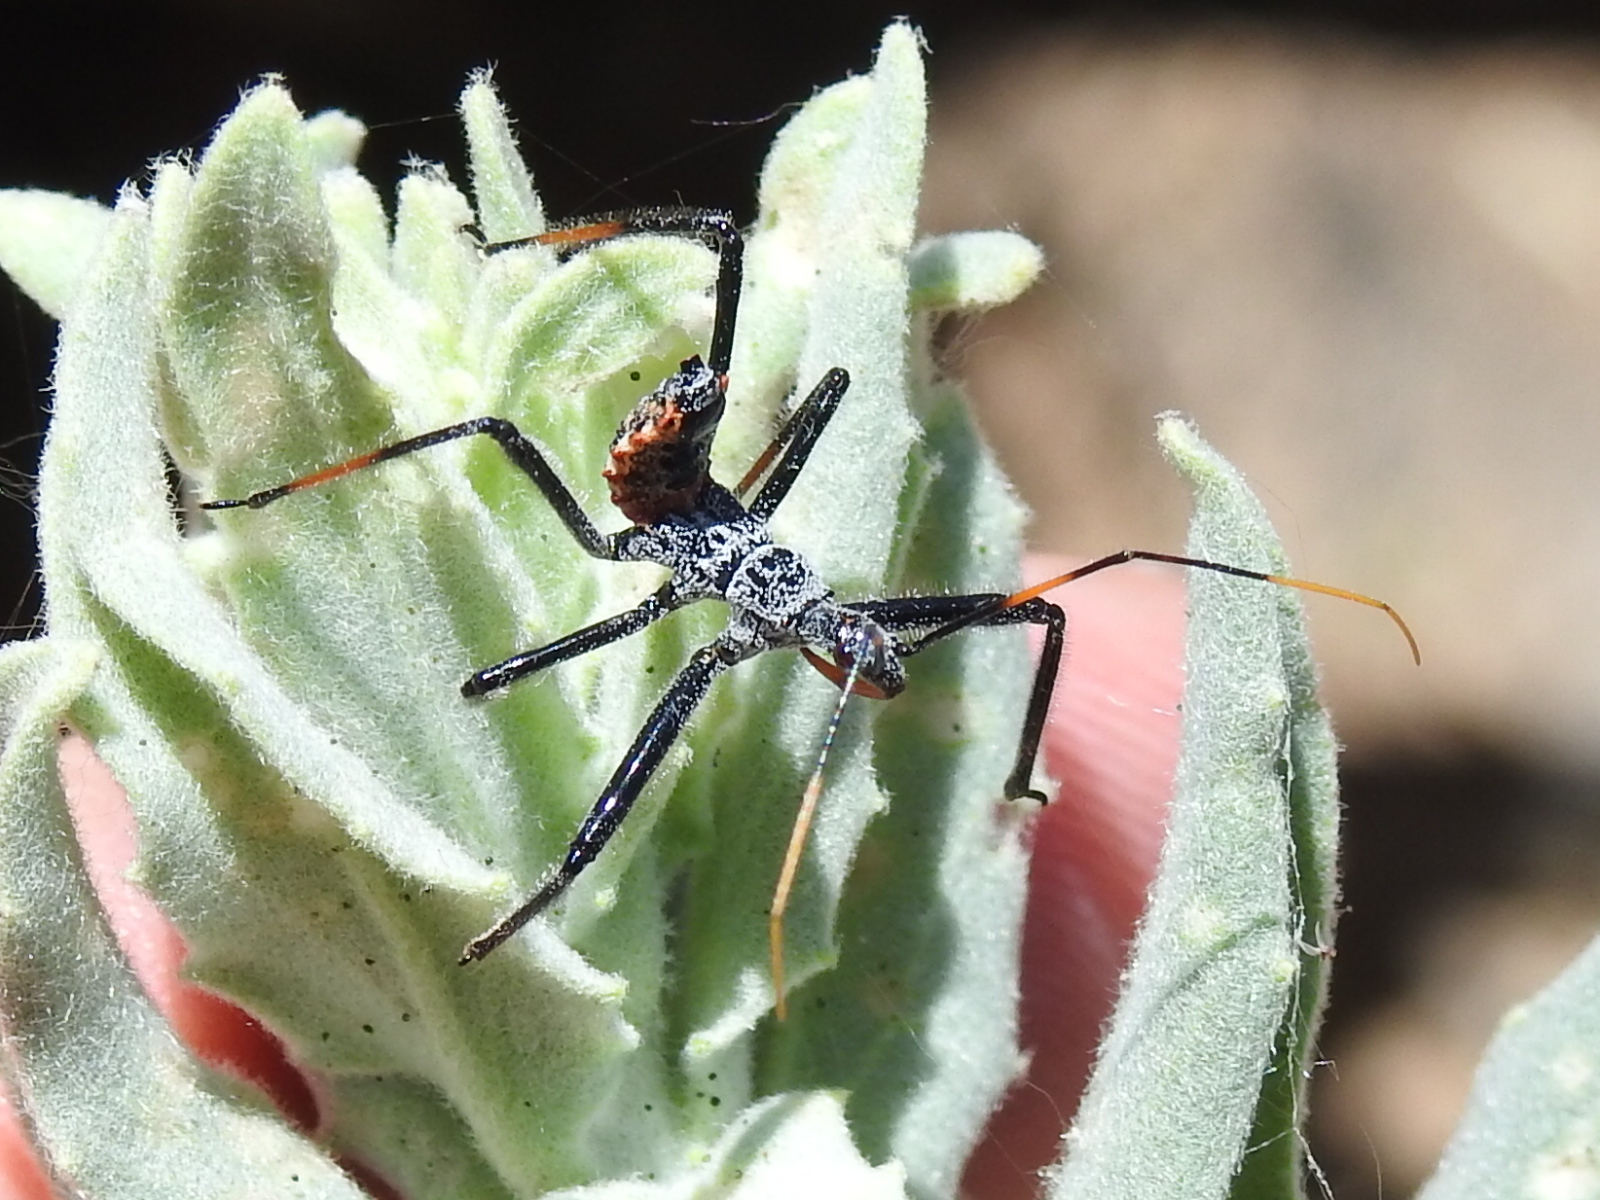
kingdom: Animalia
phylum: Arthropoda
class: Insecta
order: Hemiptera
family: Reduviidae
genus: Arilus
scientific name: Arilus cristatus
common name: North american wheel bug
